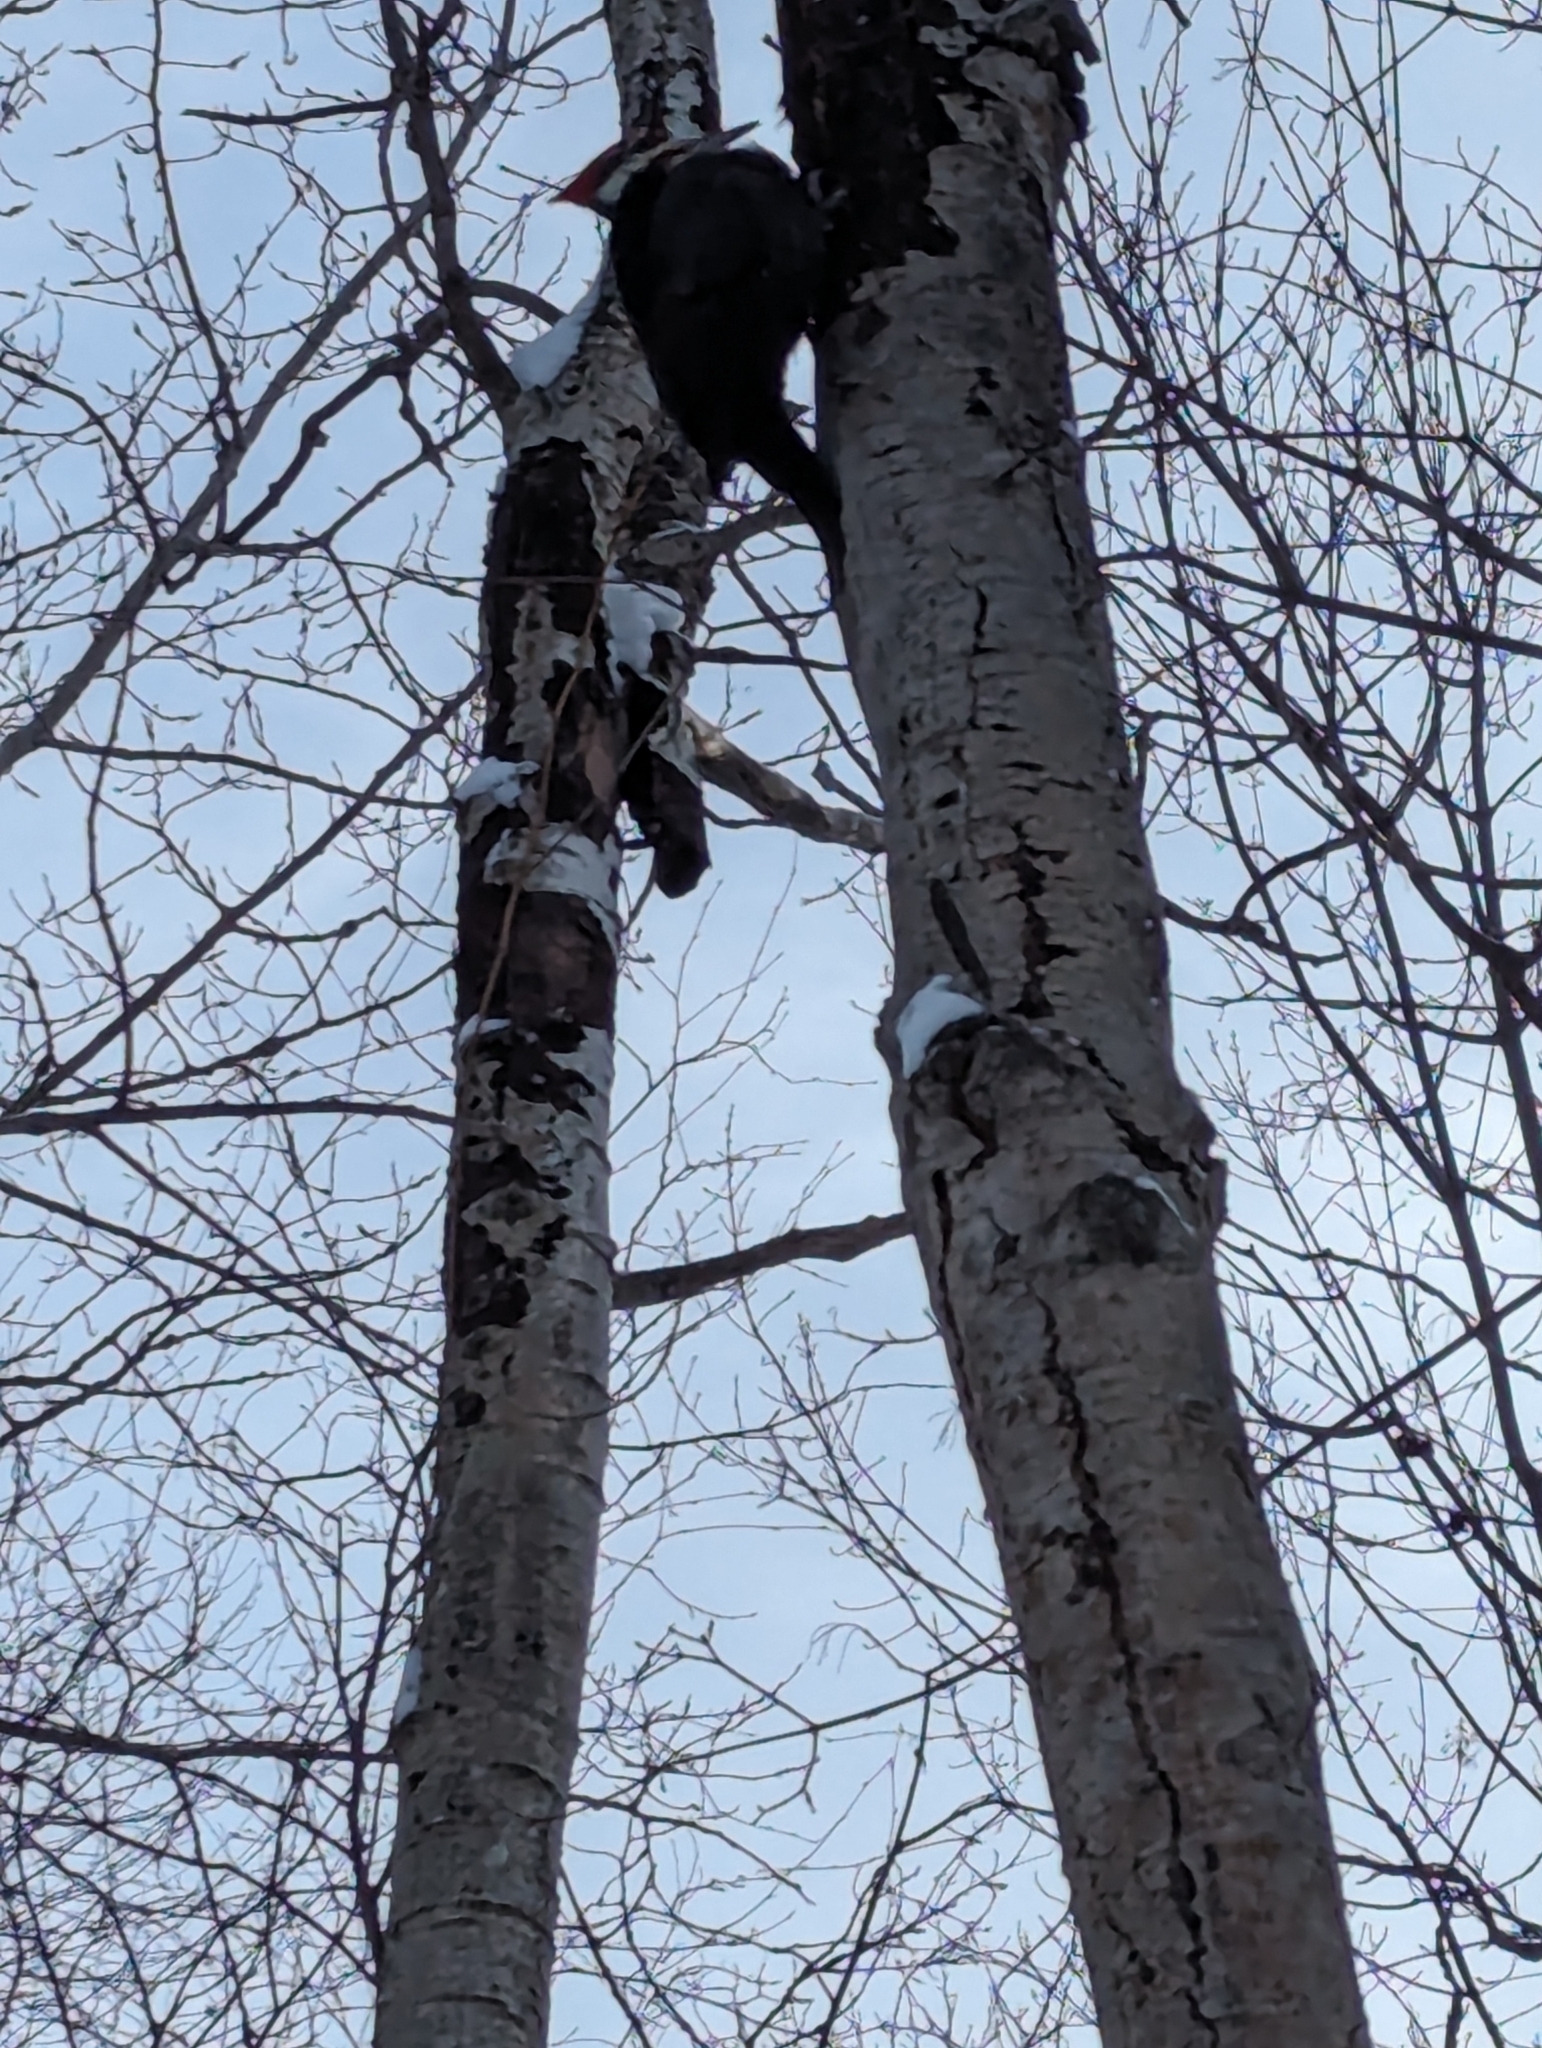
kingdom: Animalia
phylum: Chordata
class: Aves
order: Piciformes
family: Picidae
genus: Dryocopus
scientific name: Dryocopus pileatus
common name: Pileated woodpecker
